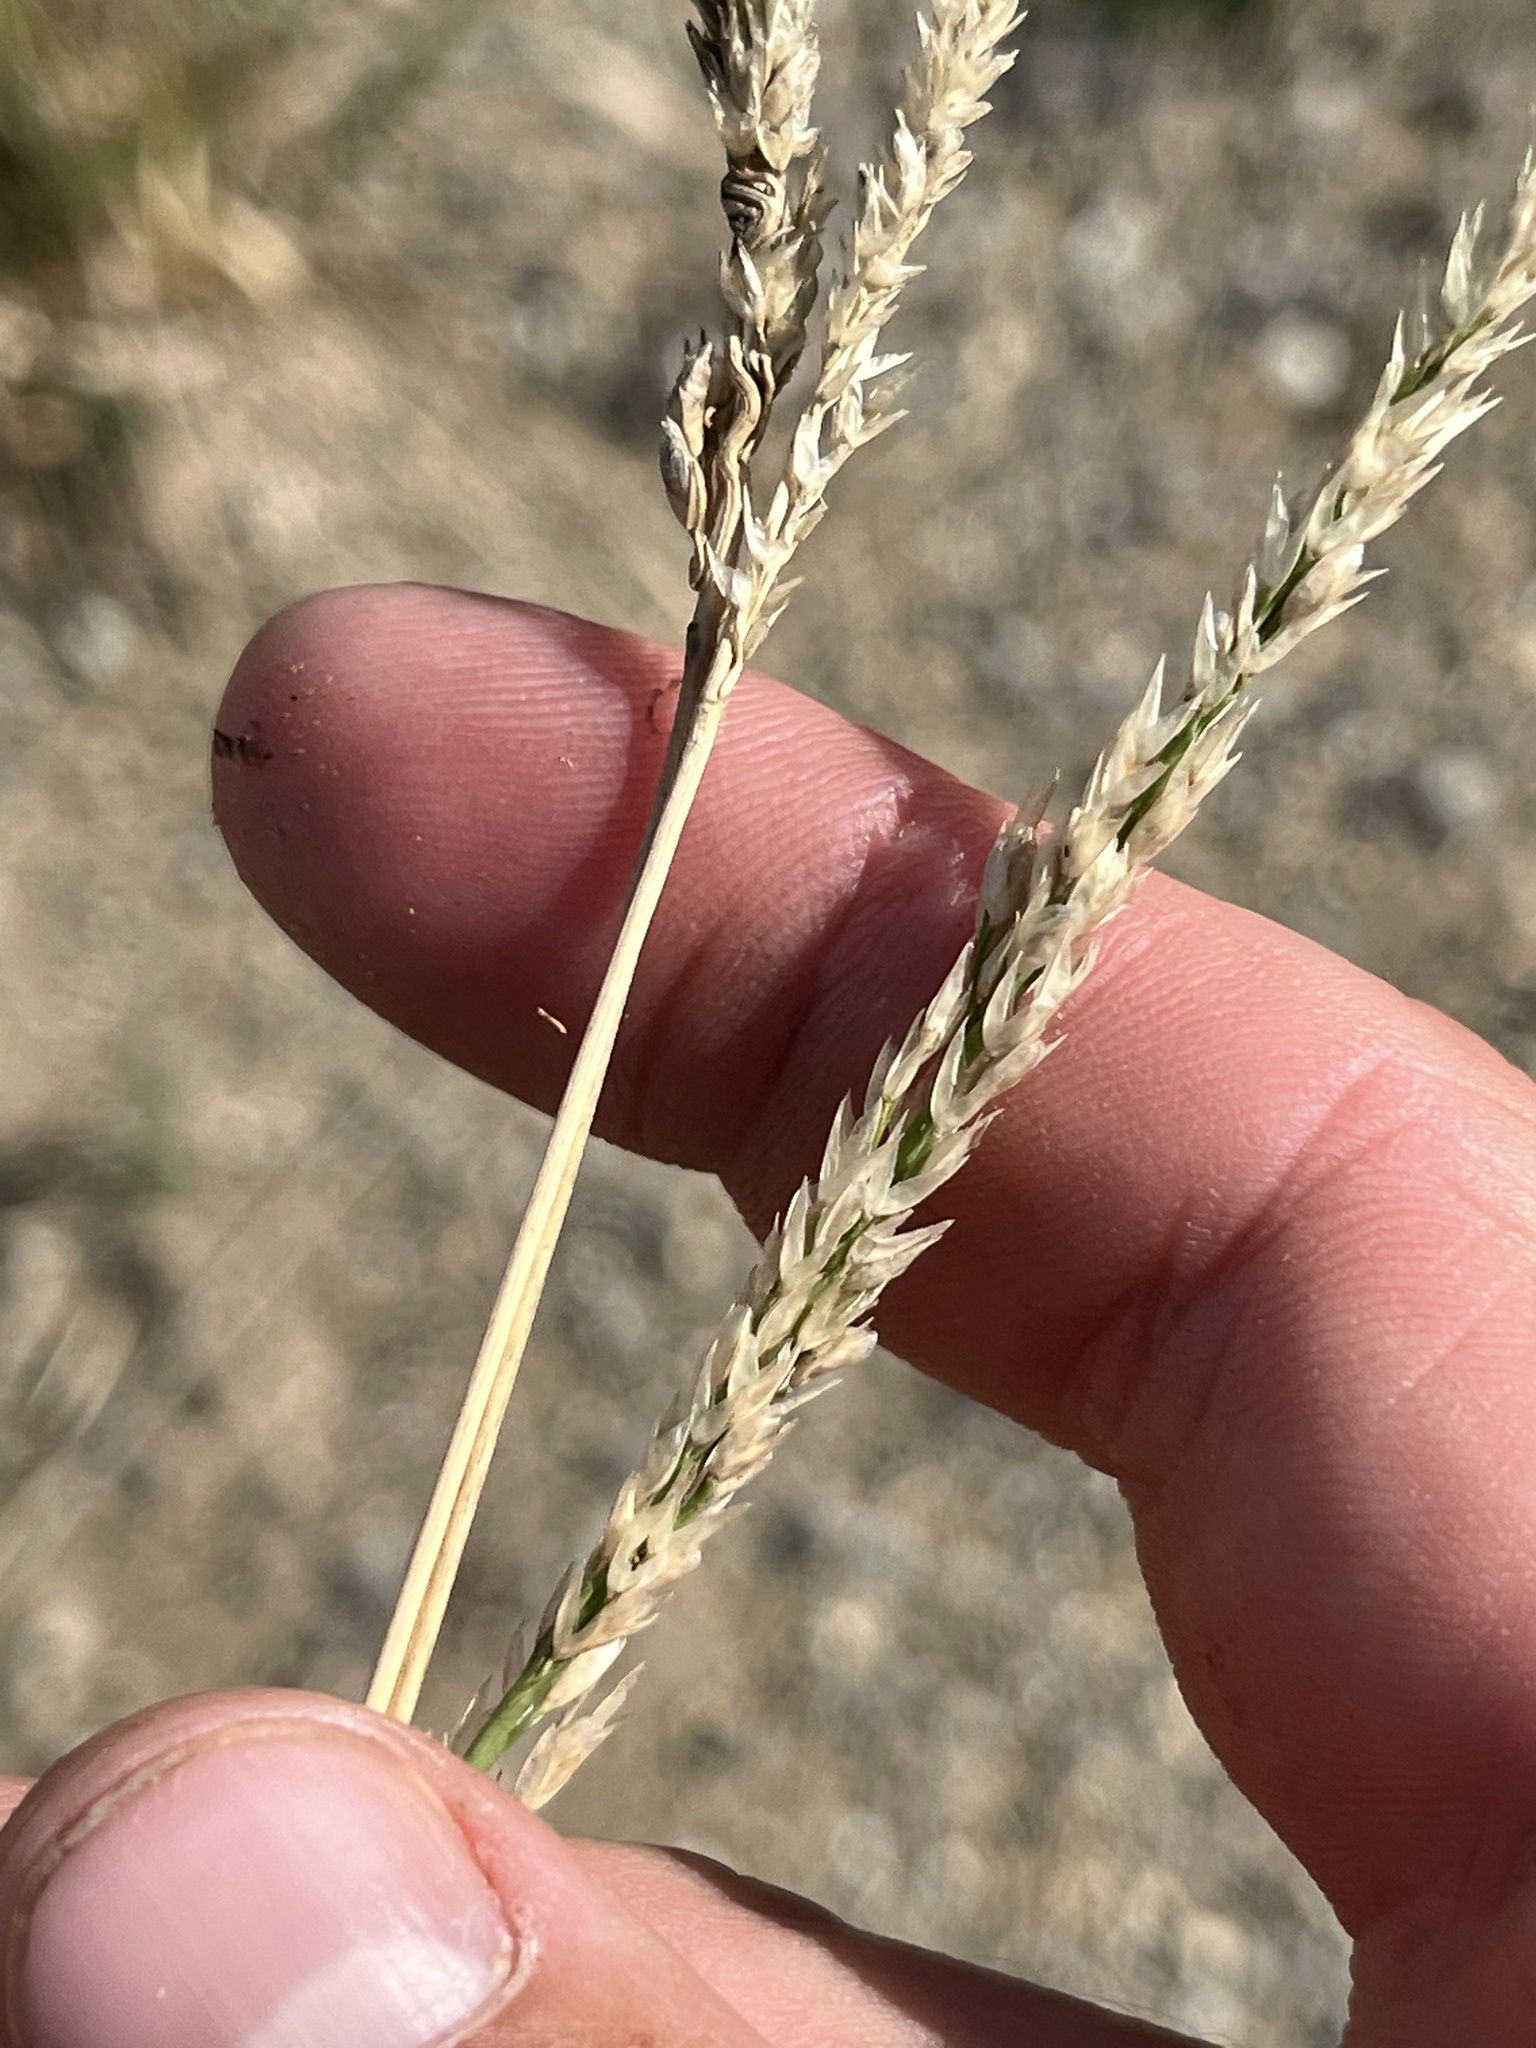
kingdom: Plantae
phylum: Tracheophyta
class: Liliopsida
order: Poales
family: Poaceae
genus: Tridens
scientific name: Tridens albescens
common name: White tridens
